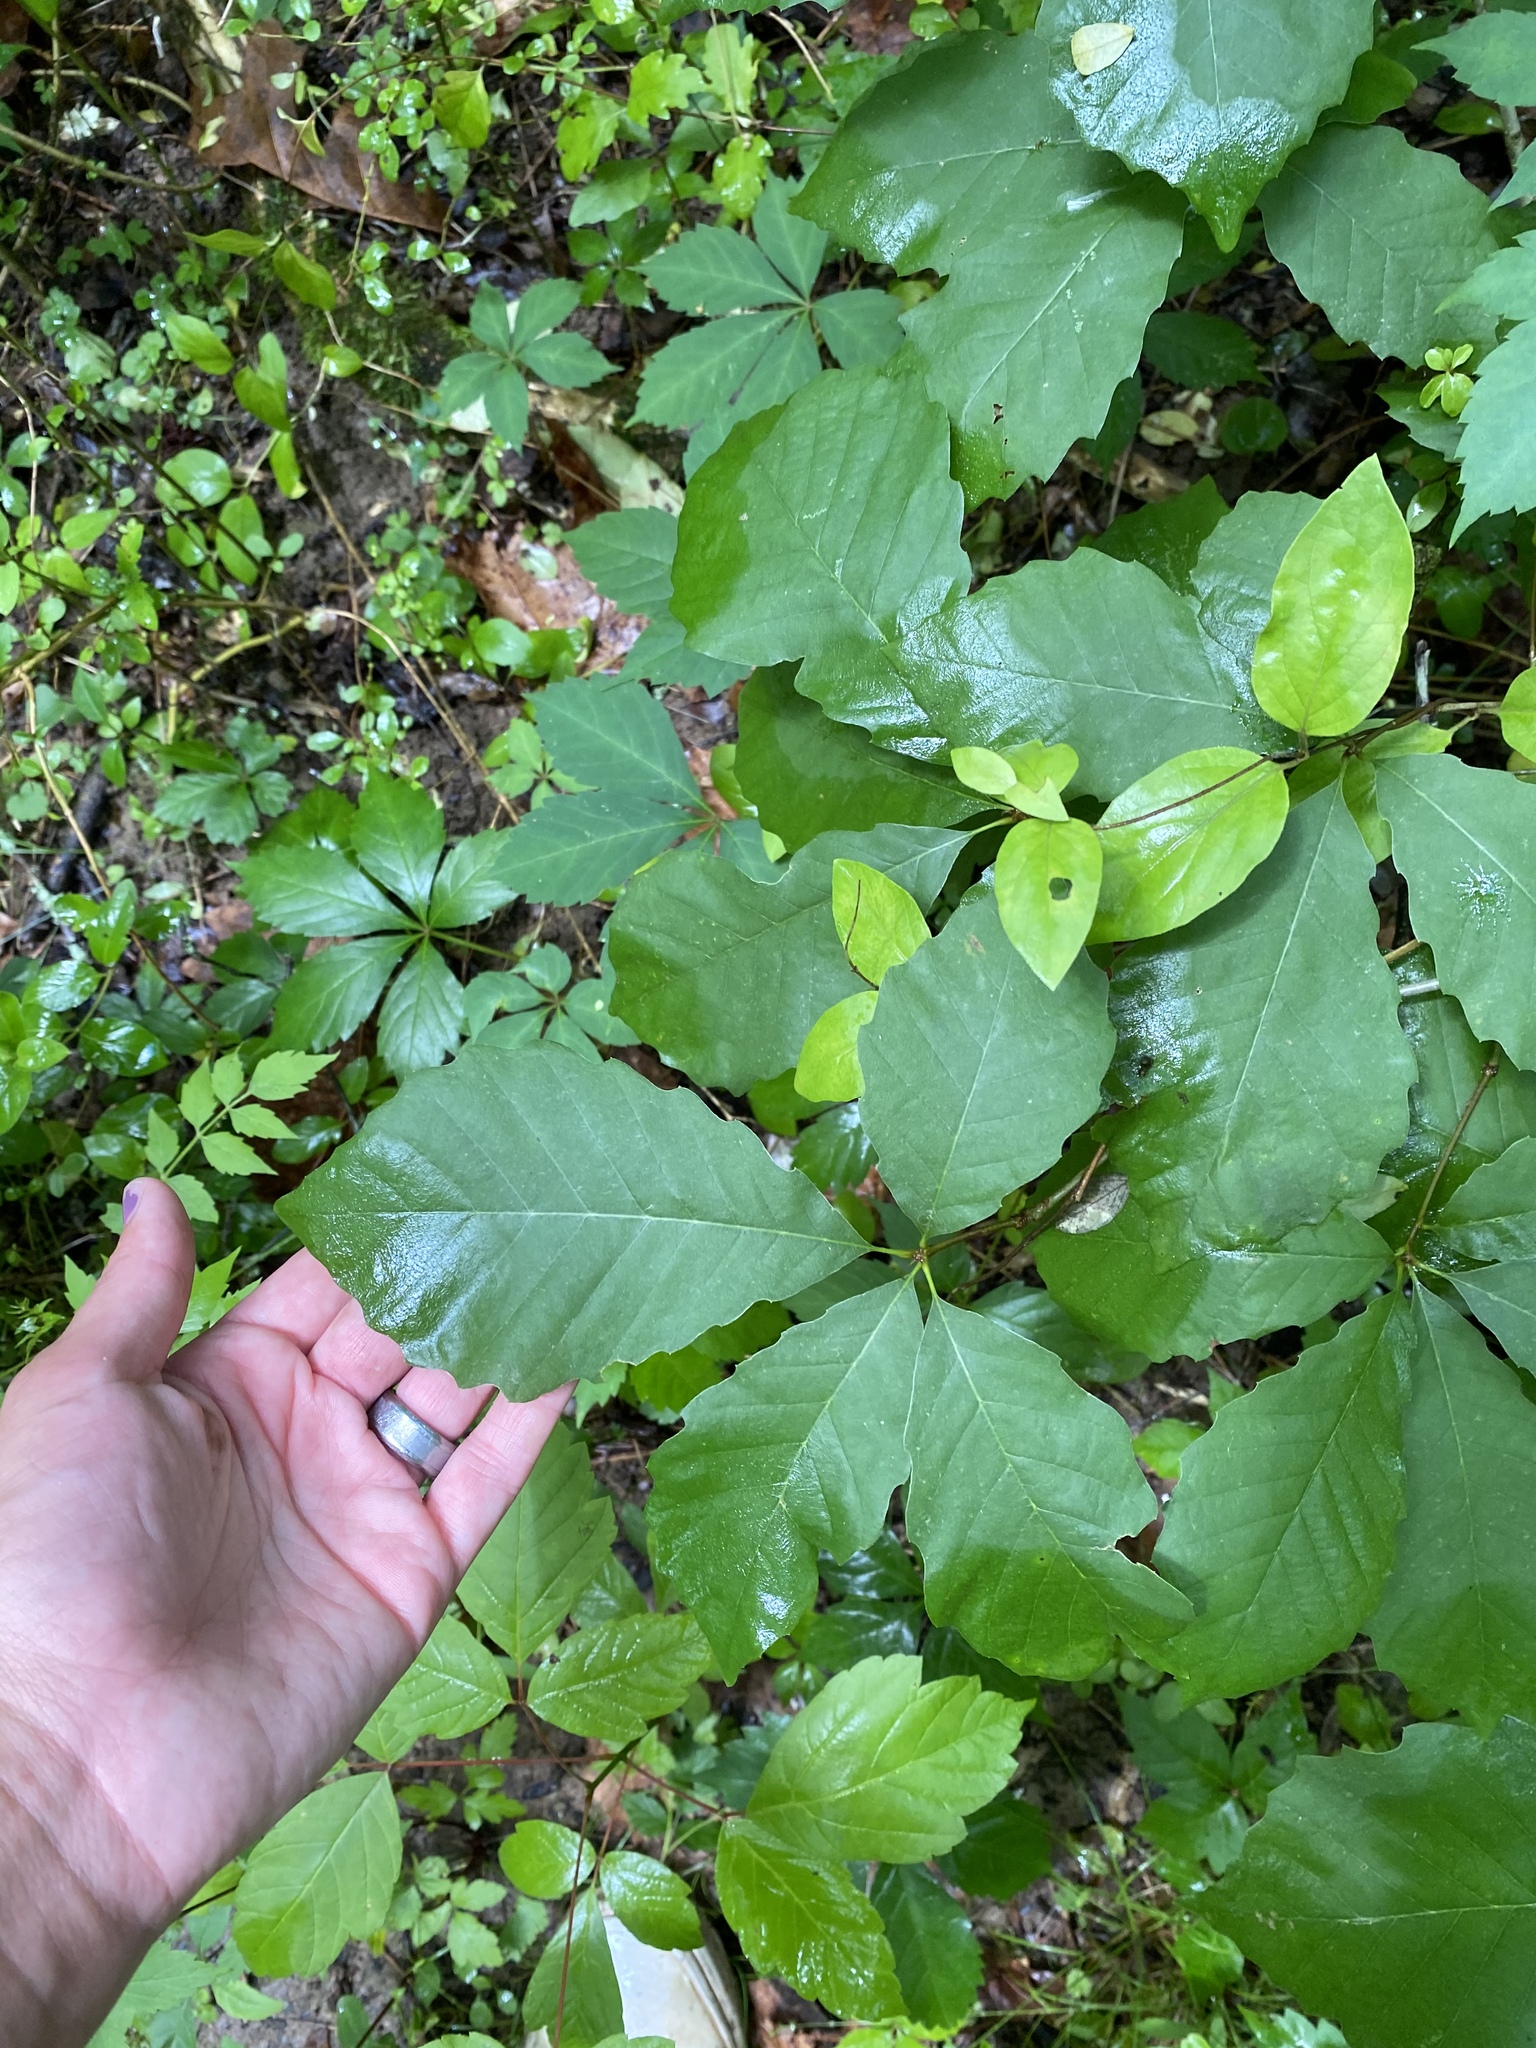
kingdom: Plantae
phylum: Tracheophyta
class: Magnoliopsida
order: Fagales
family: Fagaceae
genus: Quercus
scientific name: Quercus michauxii
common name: Swamp chestnut oak
